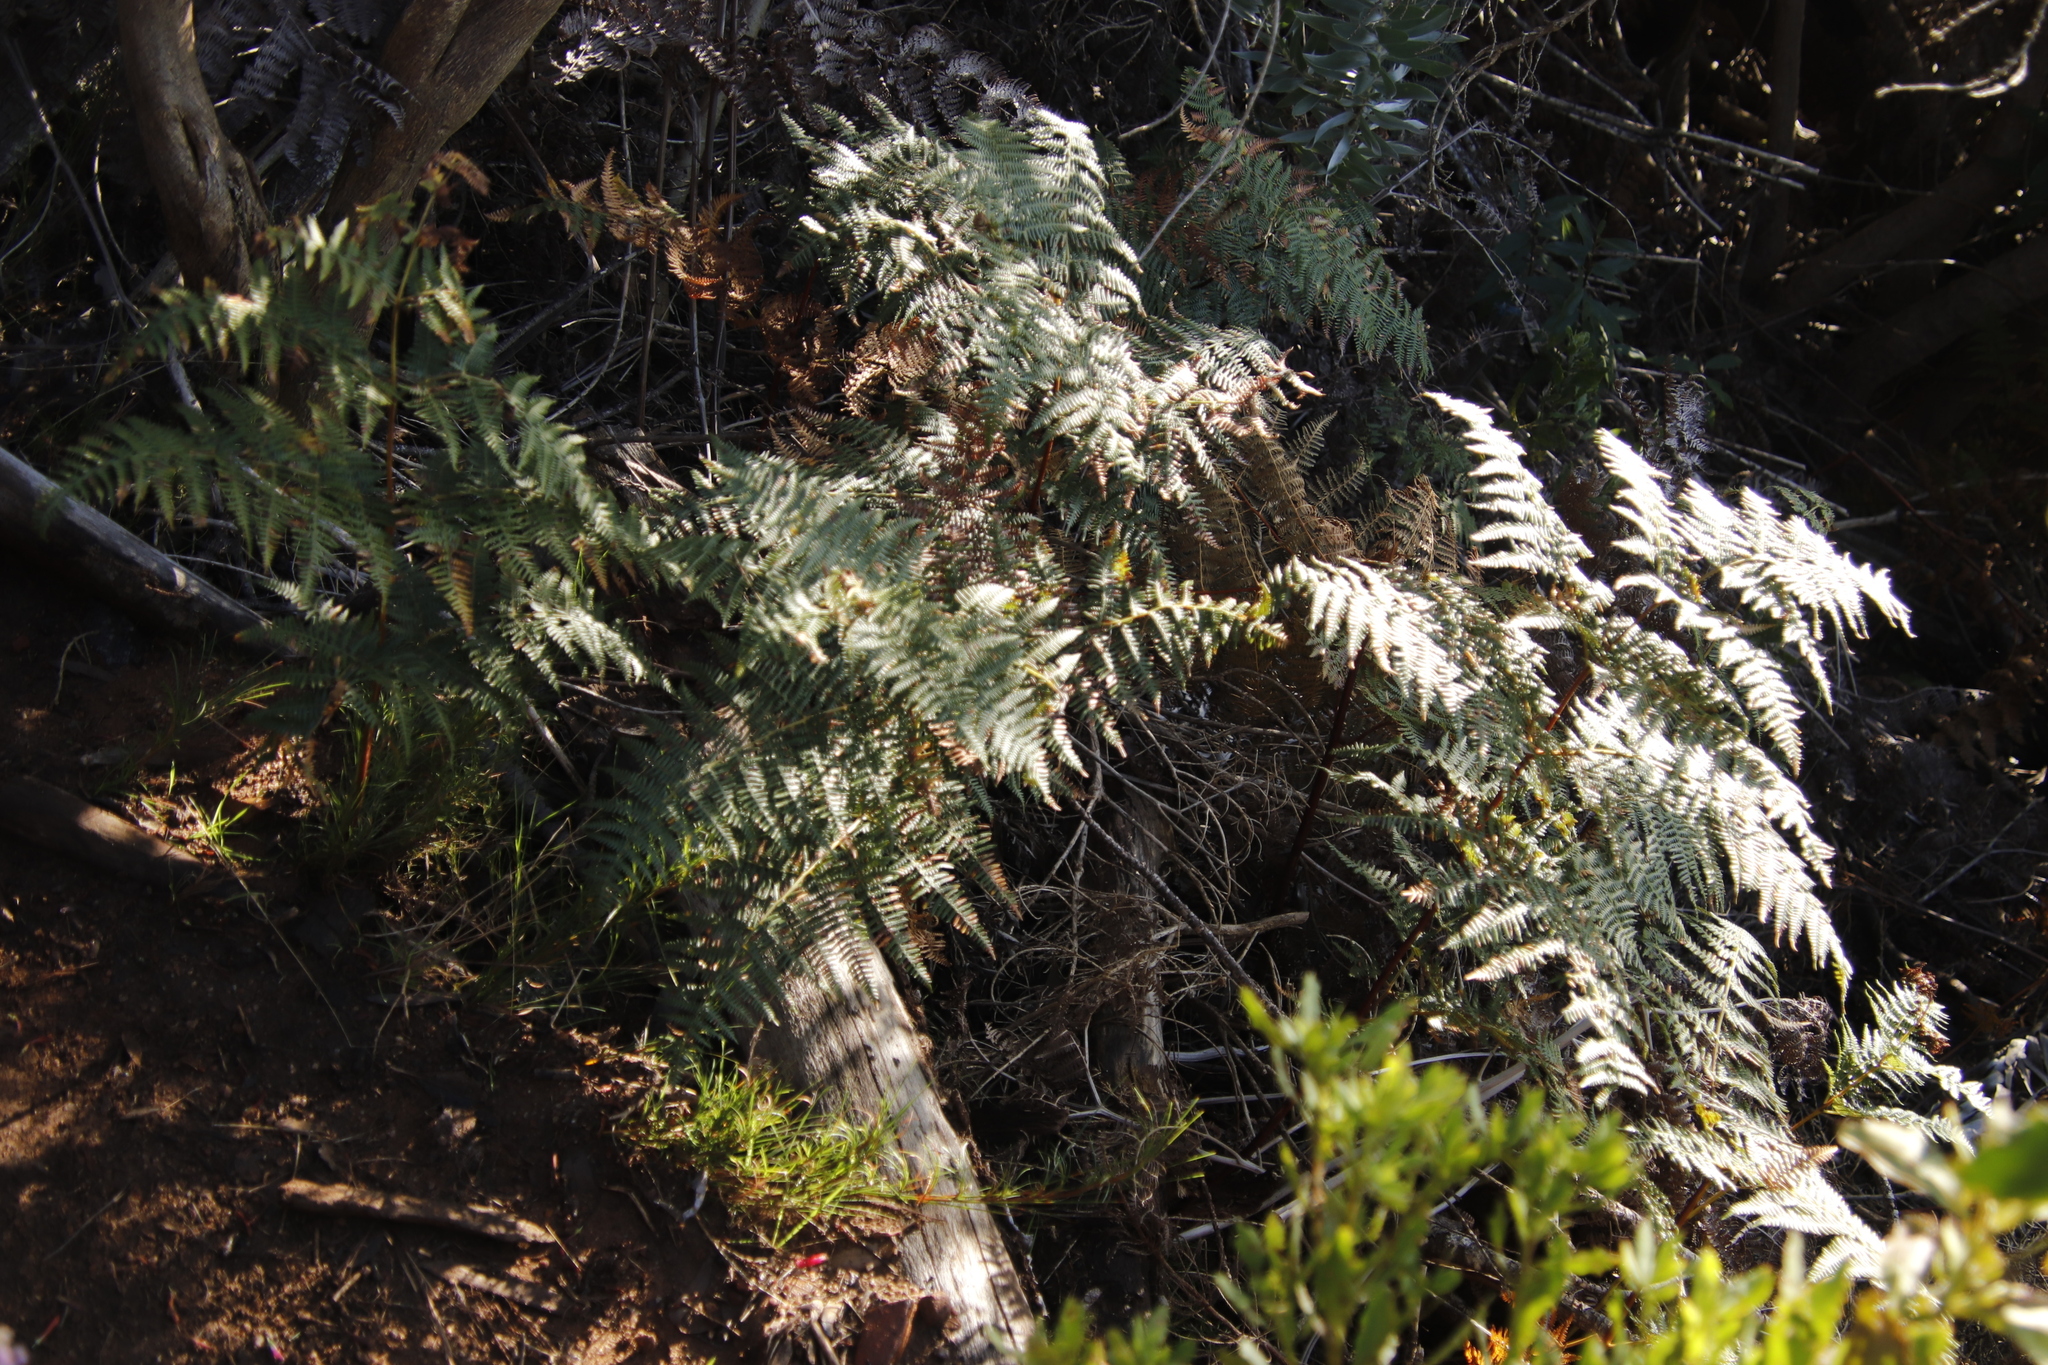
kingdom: Plantae
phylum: Tracheophyta
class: Polypodiopsida
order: Polypodiales
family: Dennstaedtiaceae
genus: Pteridium
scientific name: Pteridium aquilinum
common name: Bracken
